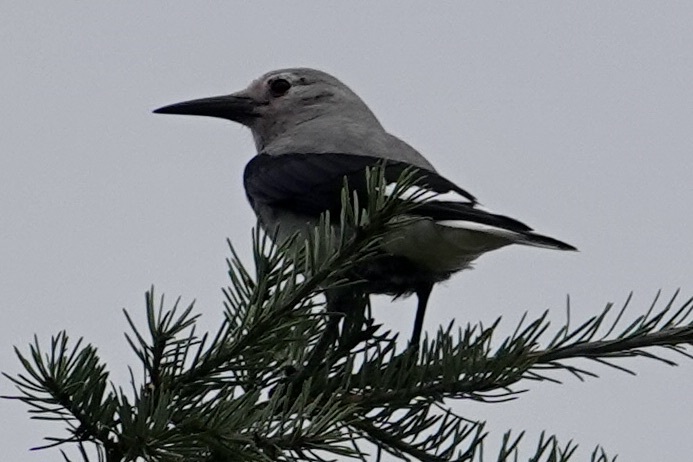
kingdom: Animalia
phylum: Chordata
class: Aves
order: Passeriformes
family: Corvidae
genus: Nucifraga
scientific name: Nucifraga columbiana
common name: Clark's nutcracker
